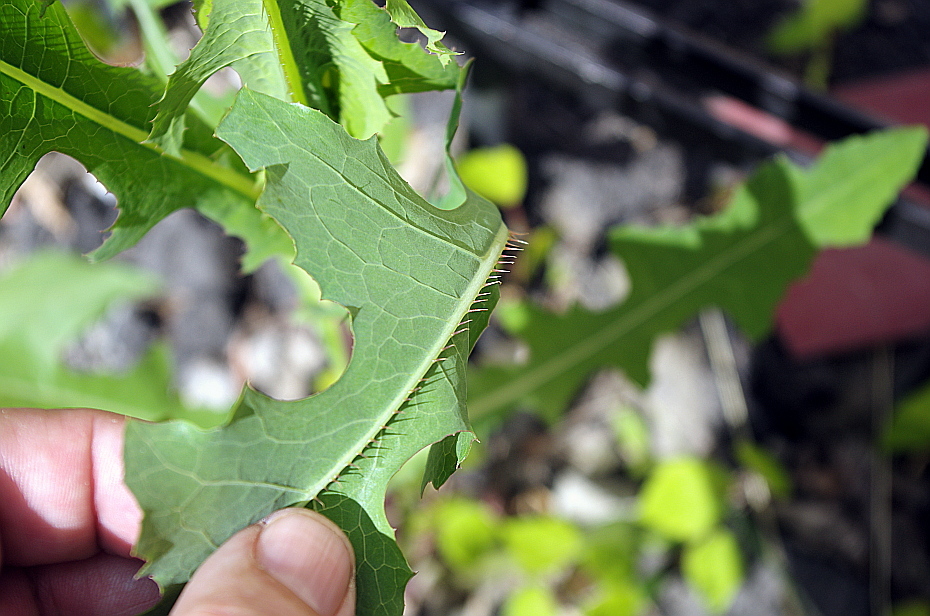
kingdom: Plantae
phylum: Tracheophyta
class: Magnoliopsida
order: Asterales
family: Asteraceae
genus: Lactuca
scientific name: Lactuca serriola
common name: Prickly lettuce
